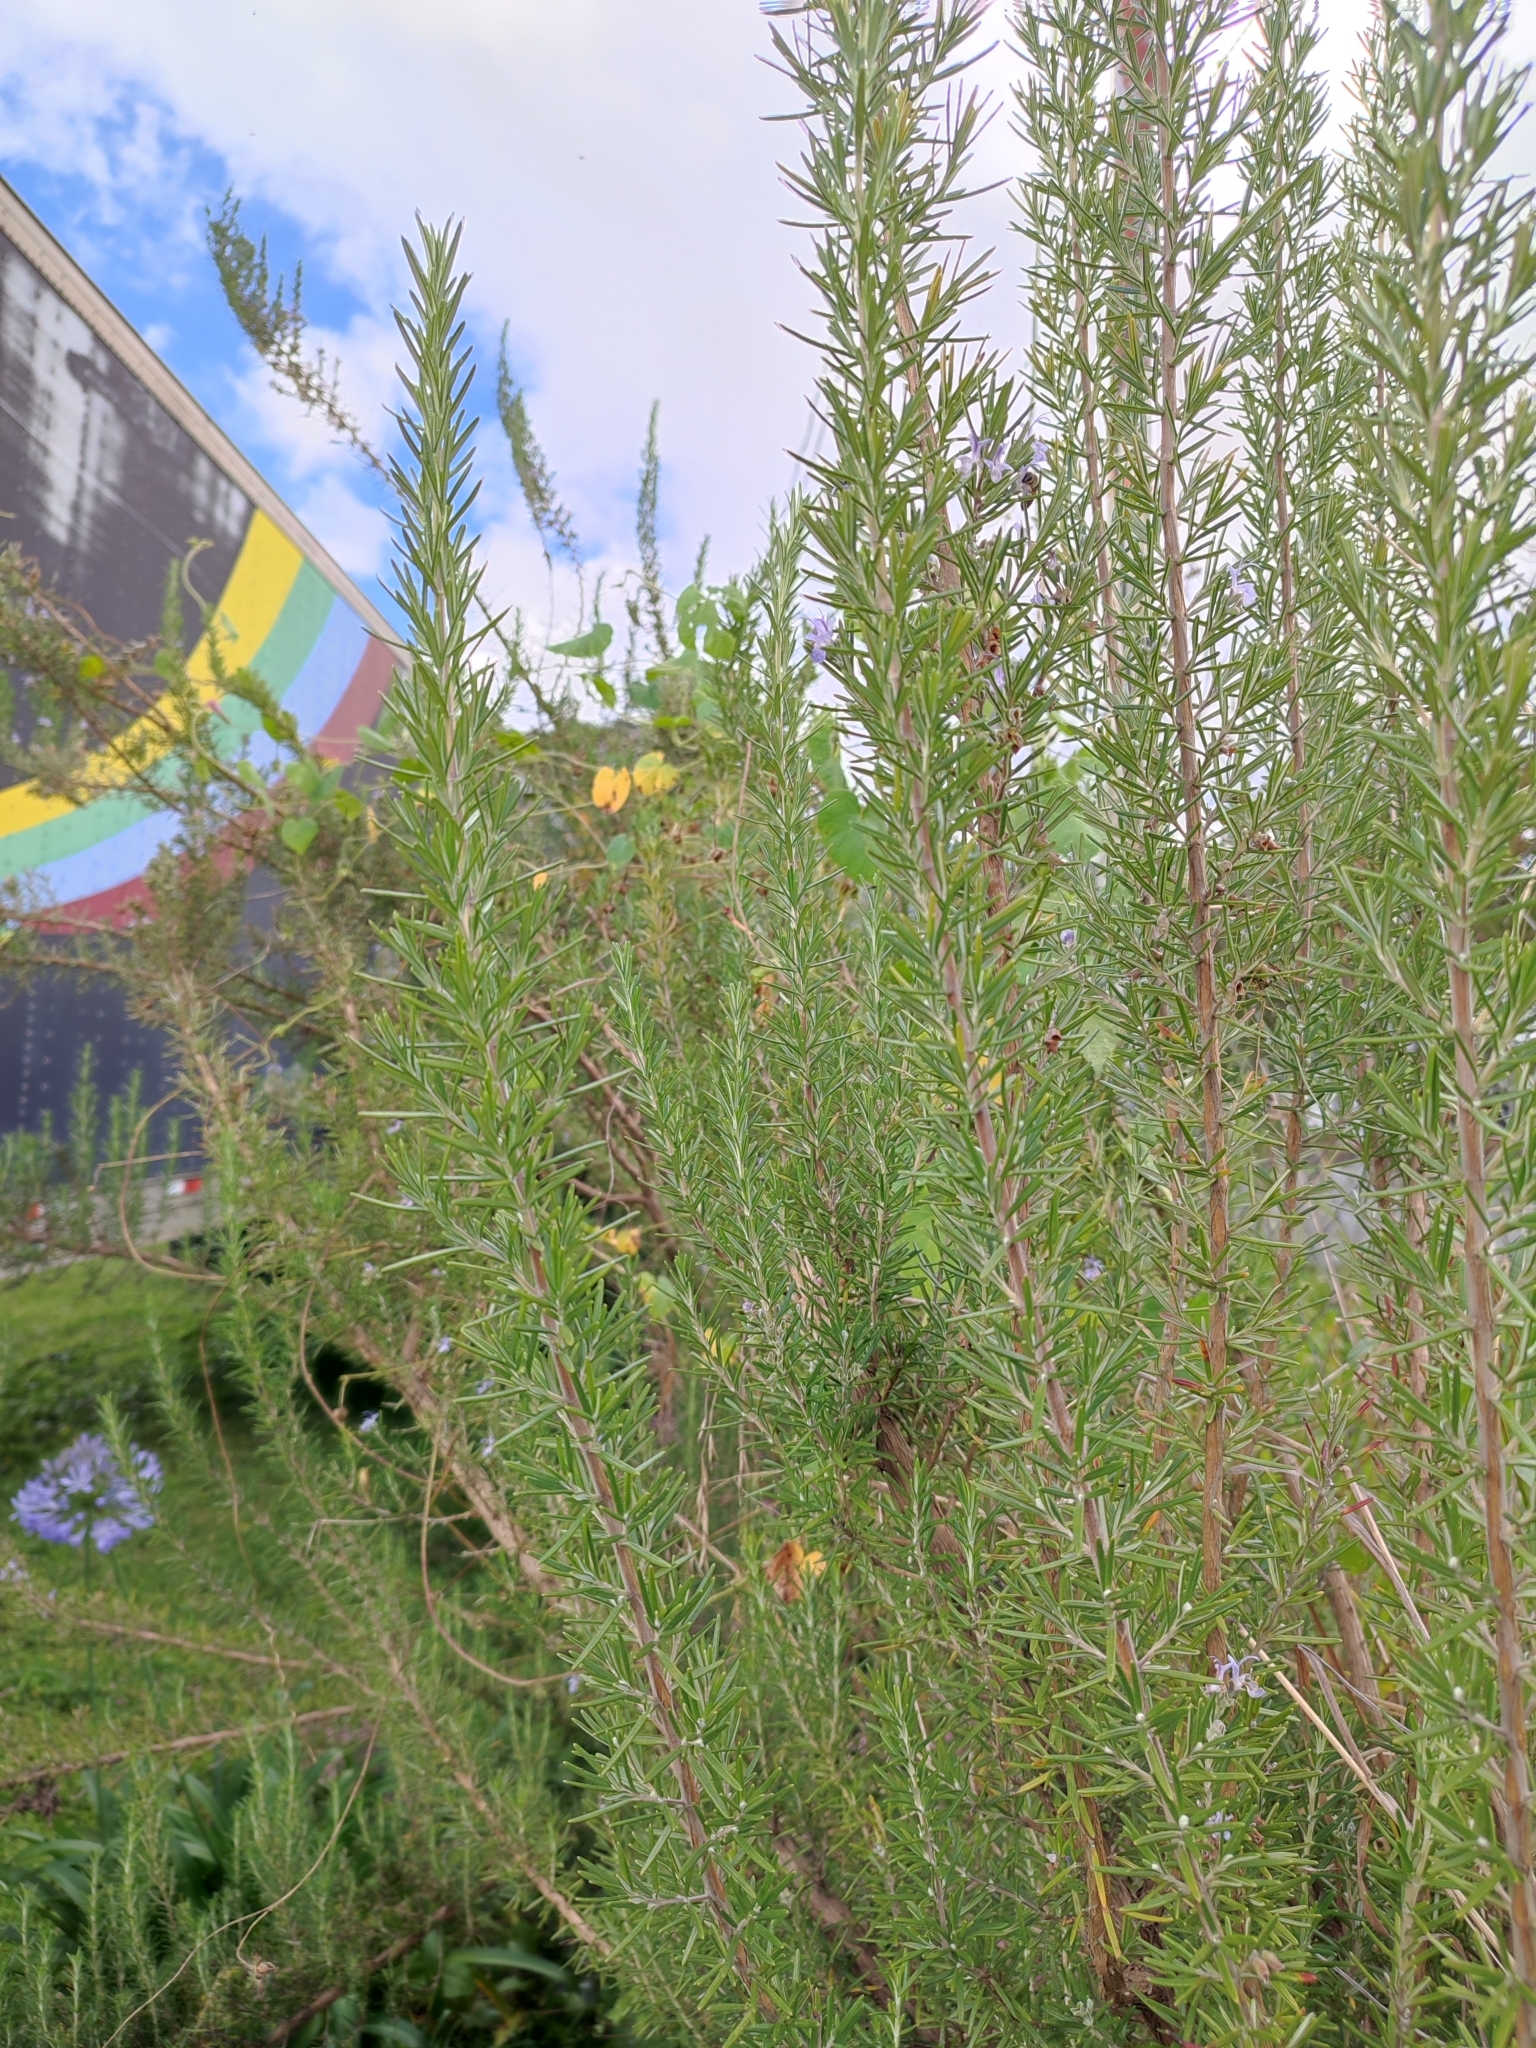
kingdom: Plantae
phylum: Tracheophyta
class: Magnoliopsida
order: Lamiales
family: Lamiaceae
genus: Salvia
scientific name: Salvia rosmarinus
